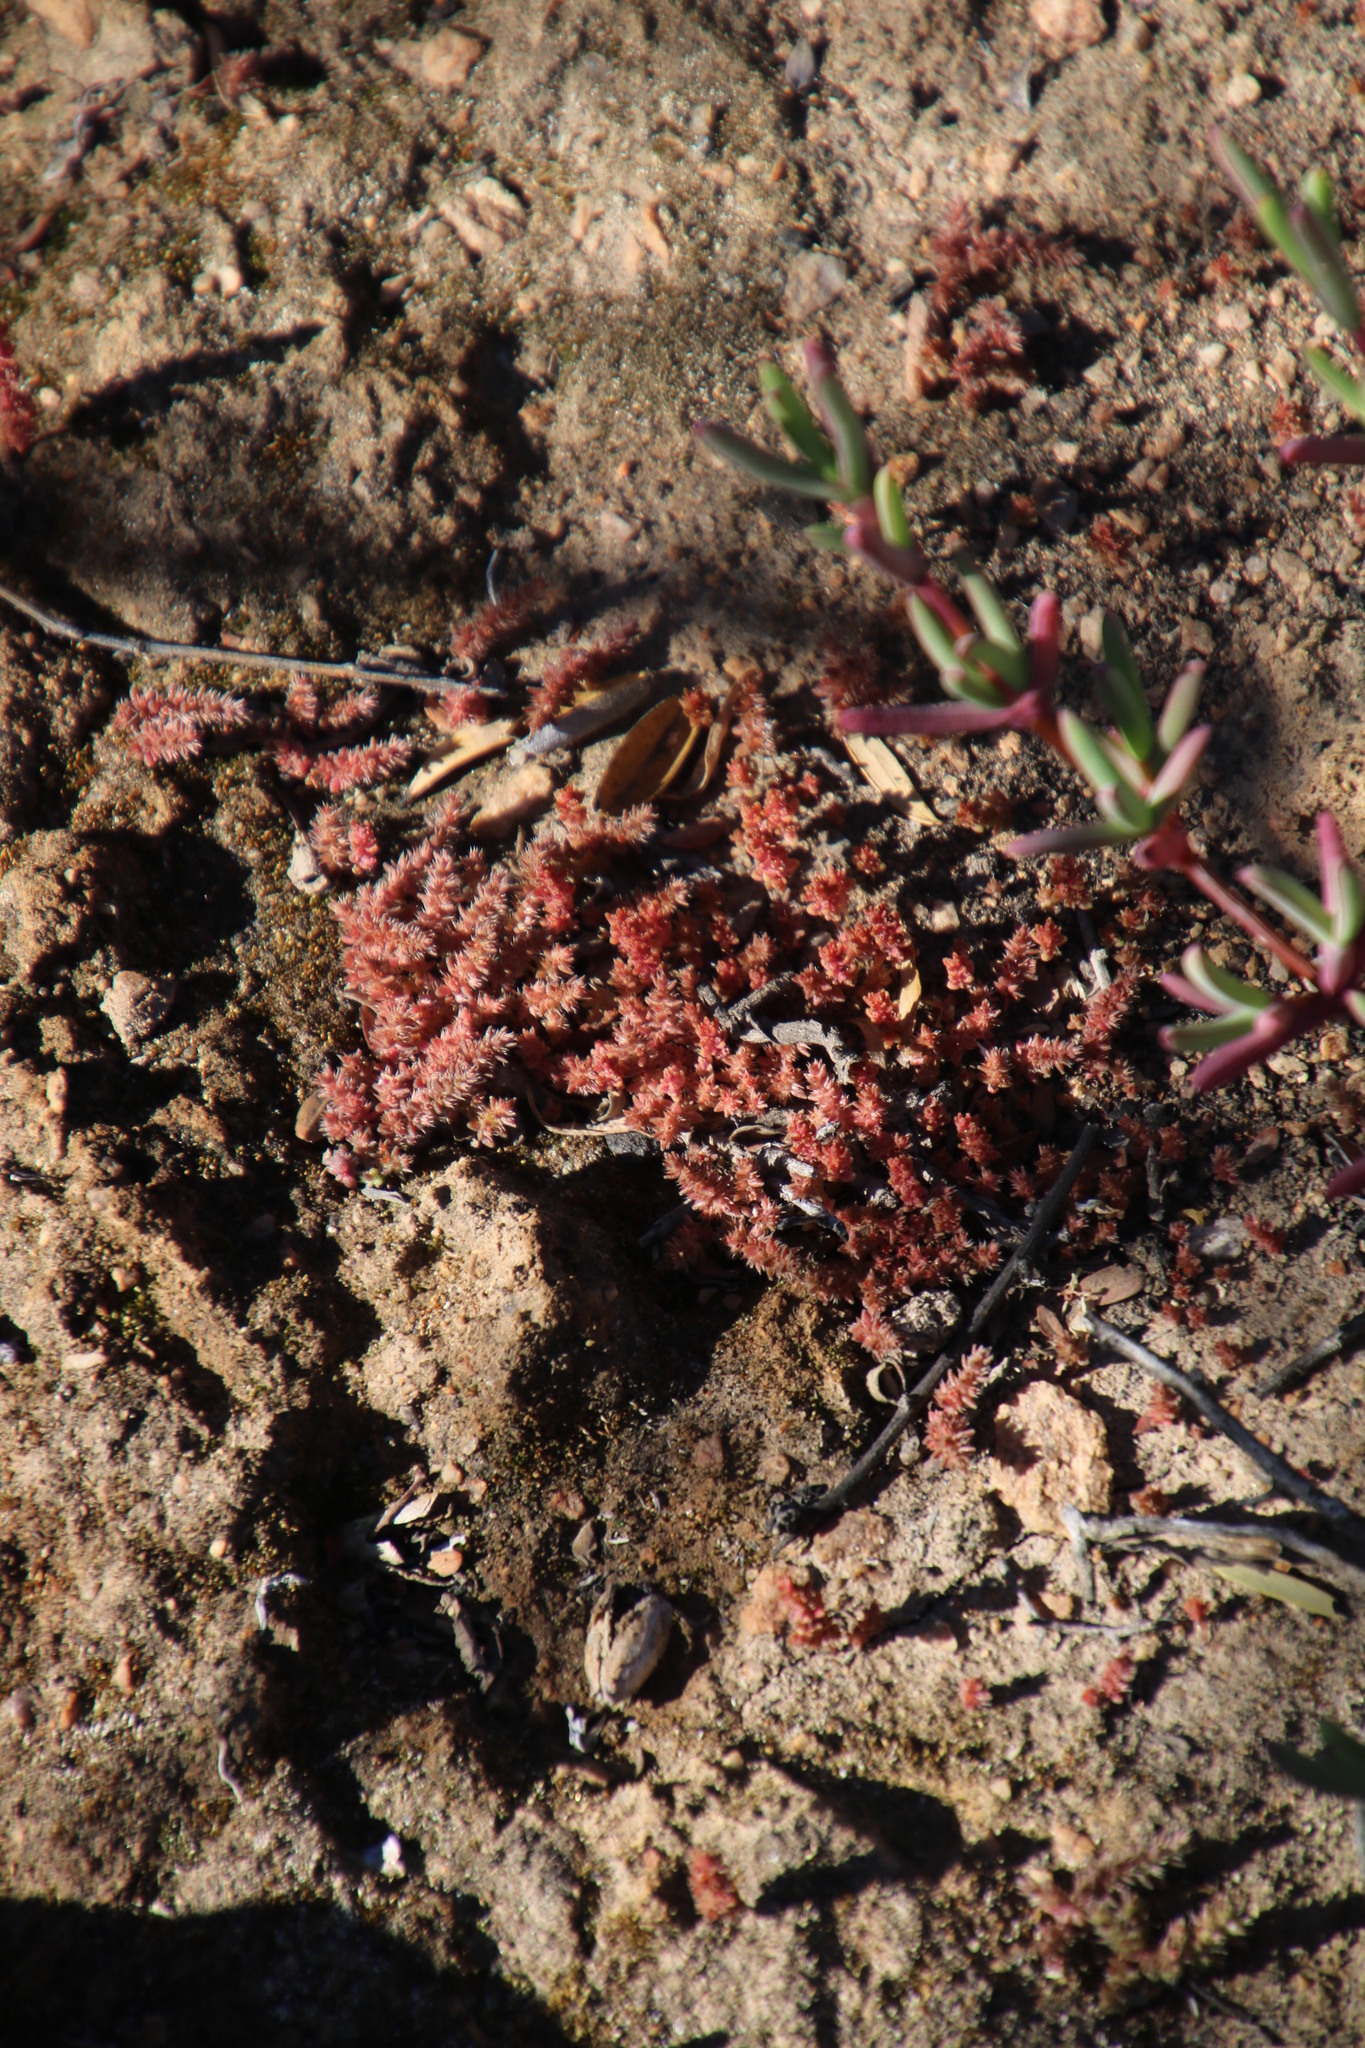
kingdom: Plantae
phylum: Tracheophyta
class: Magnoliopsida
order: Saxifragales
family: Crassulaceae
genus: Crassula
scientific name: Crassula campestris
